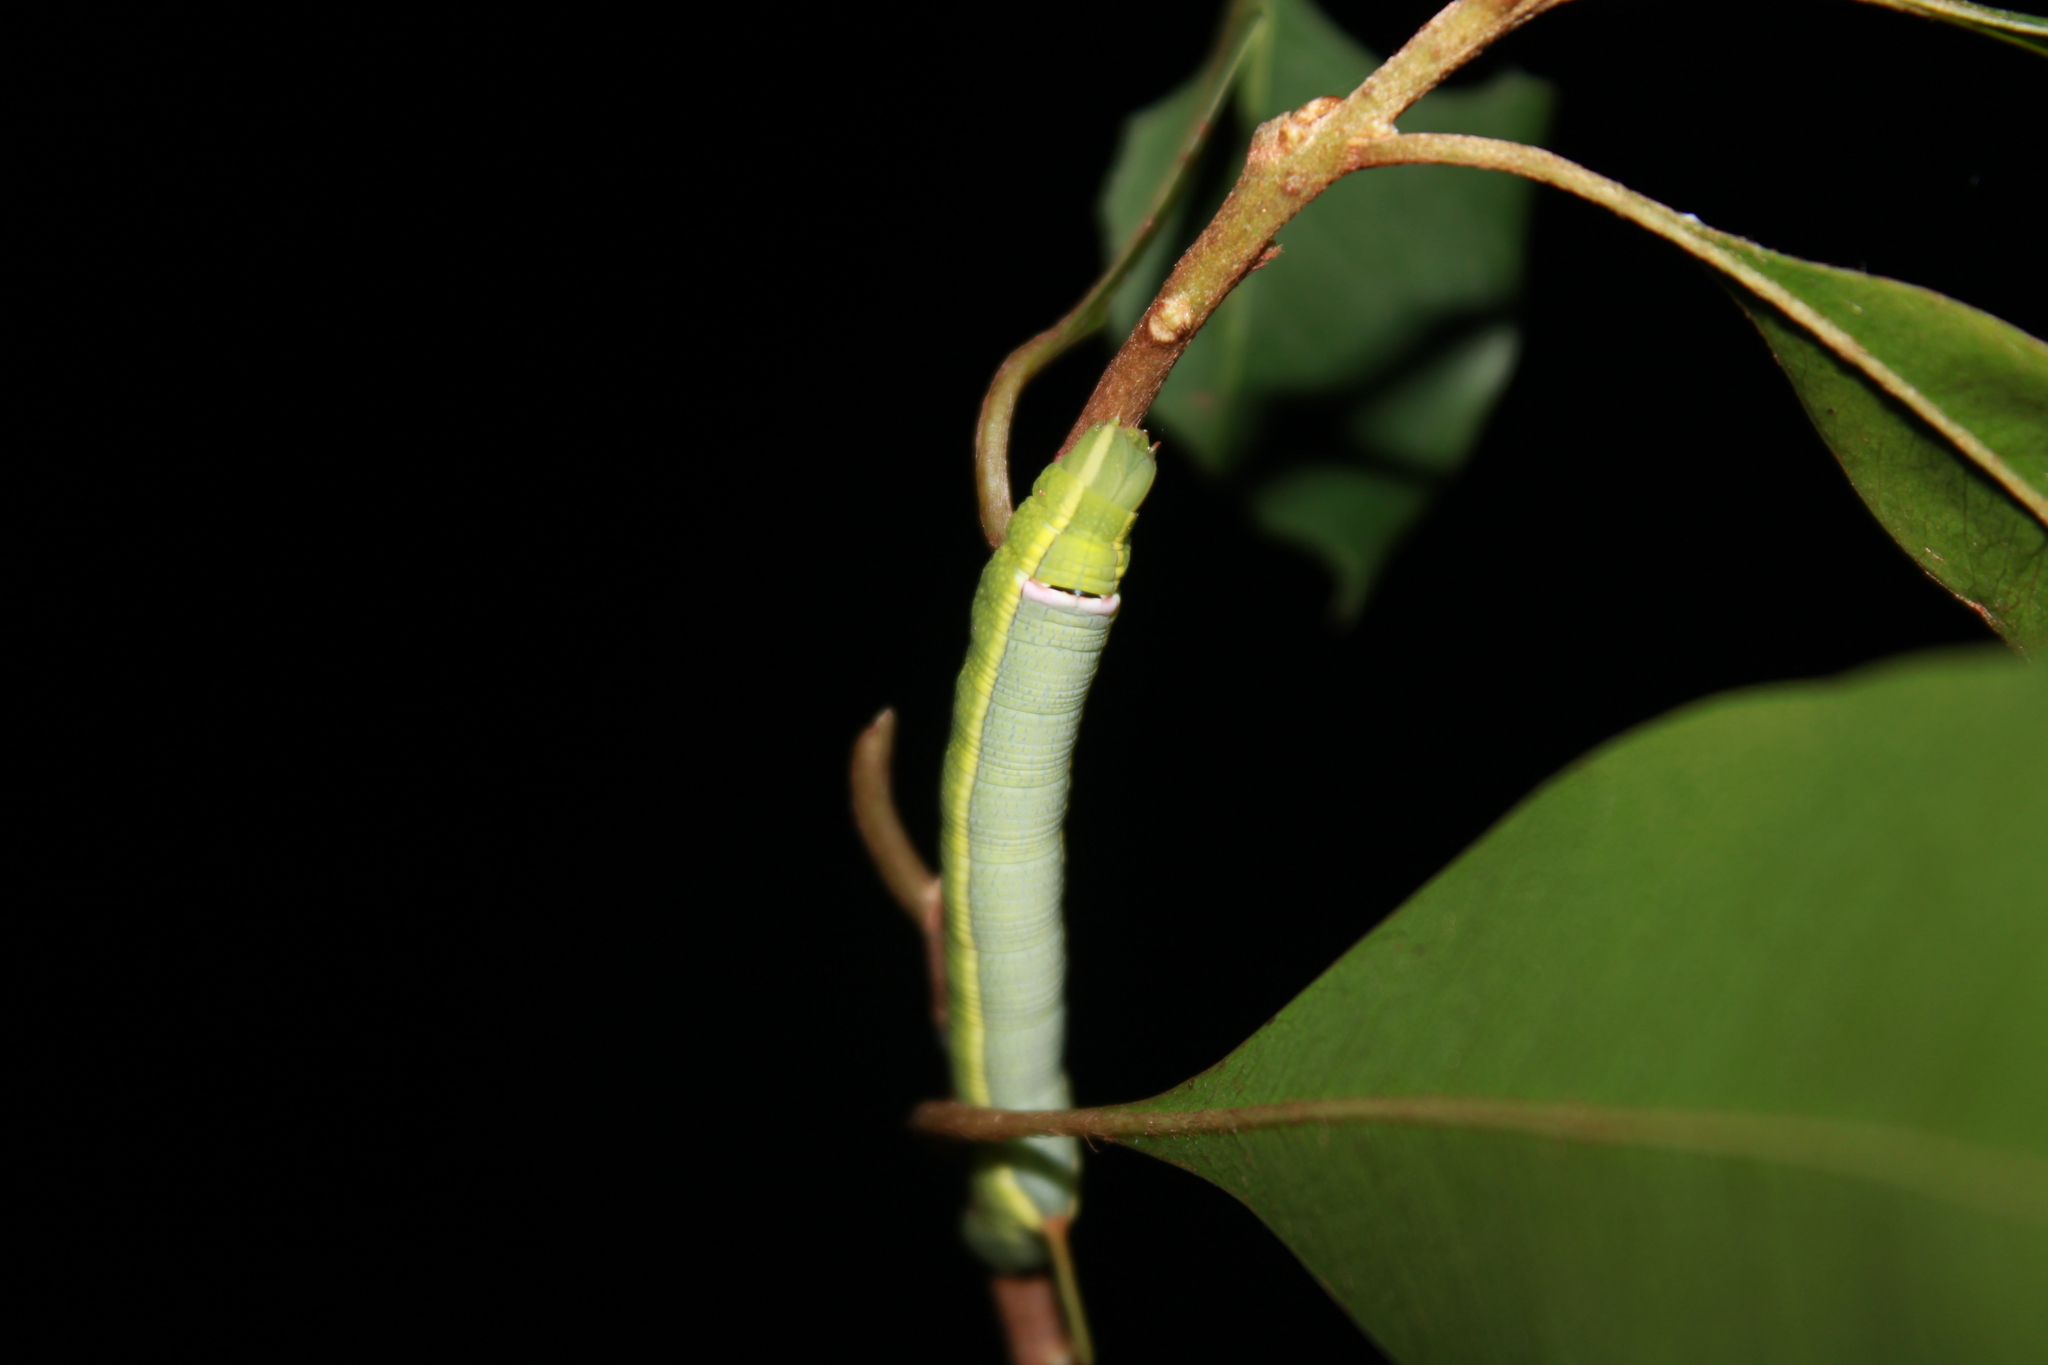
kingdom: Animalia
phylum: Arthropoda
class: Insecta
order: Lepidoptera
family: Sphingidae
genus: Erinnyis
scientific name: Erinnyis ello
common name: Ello sphinx
